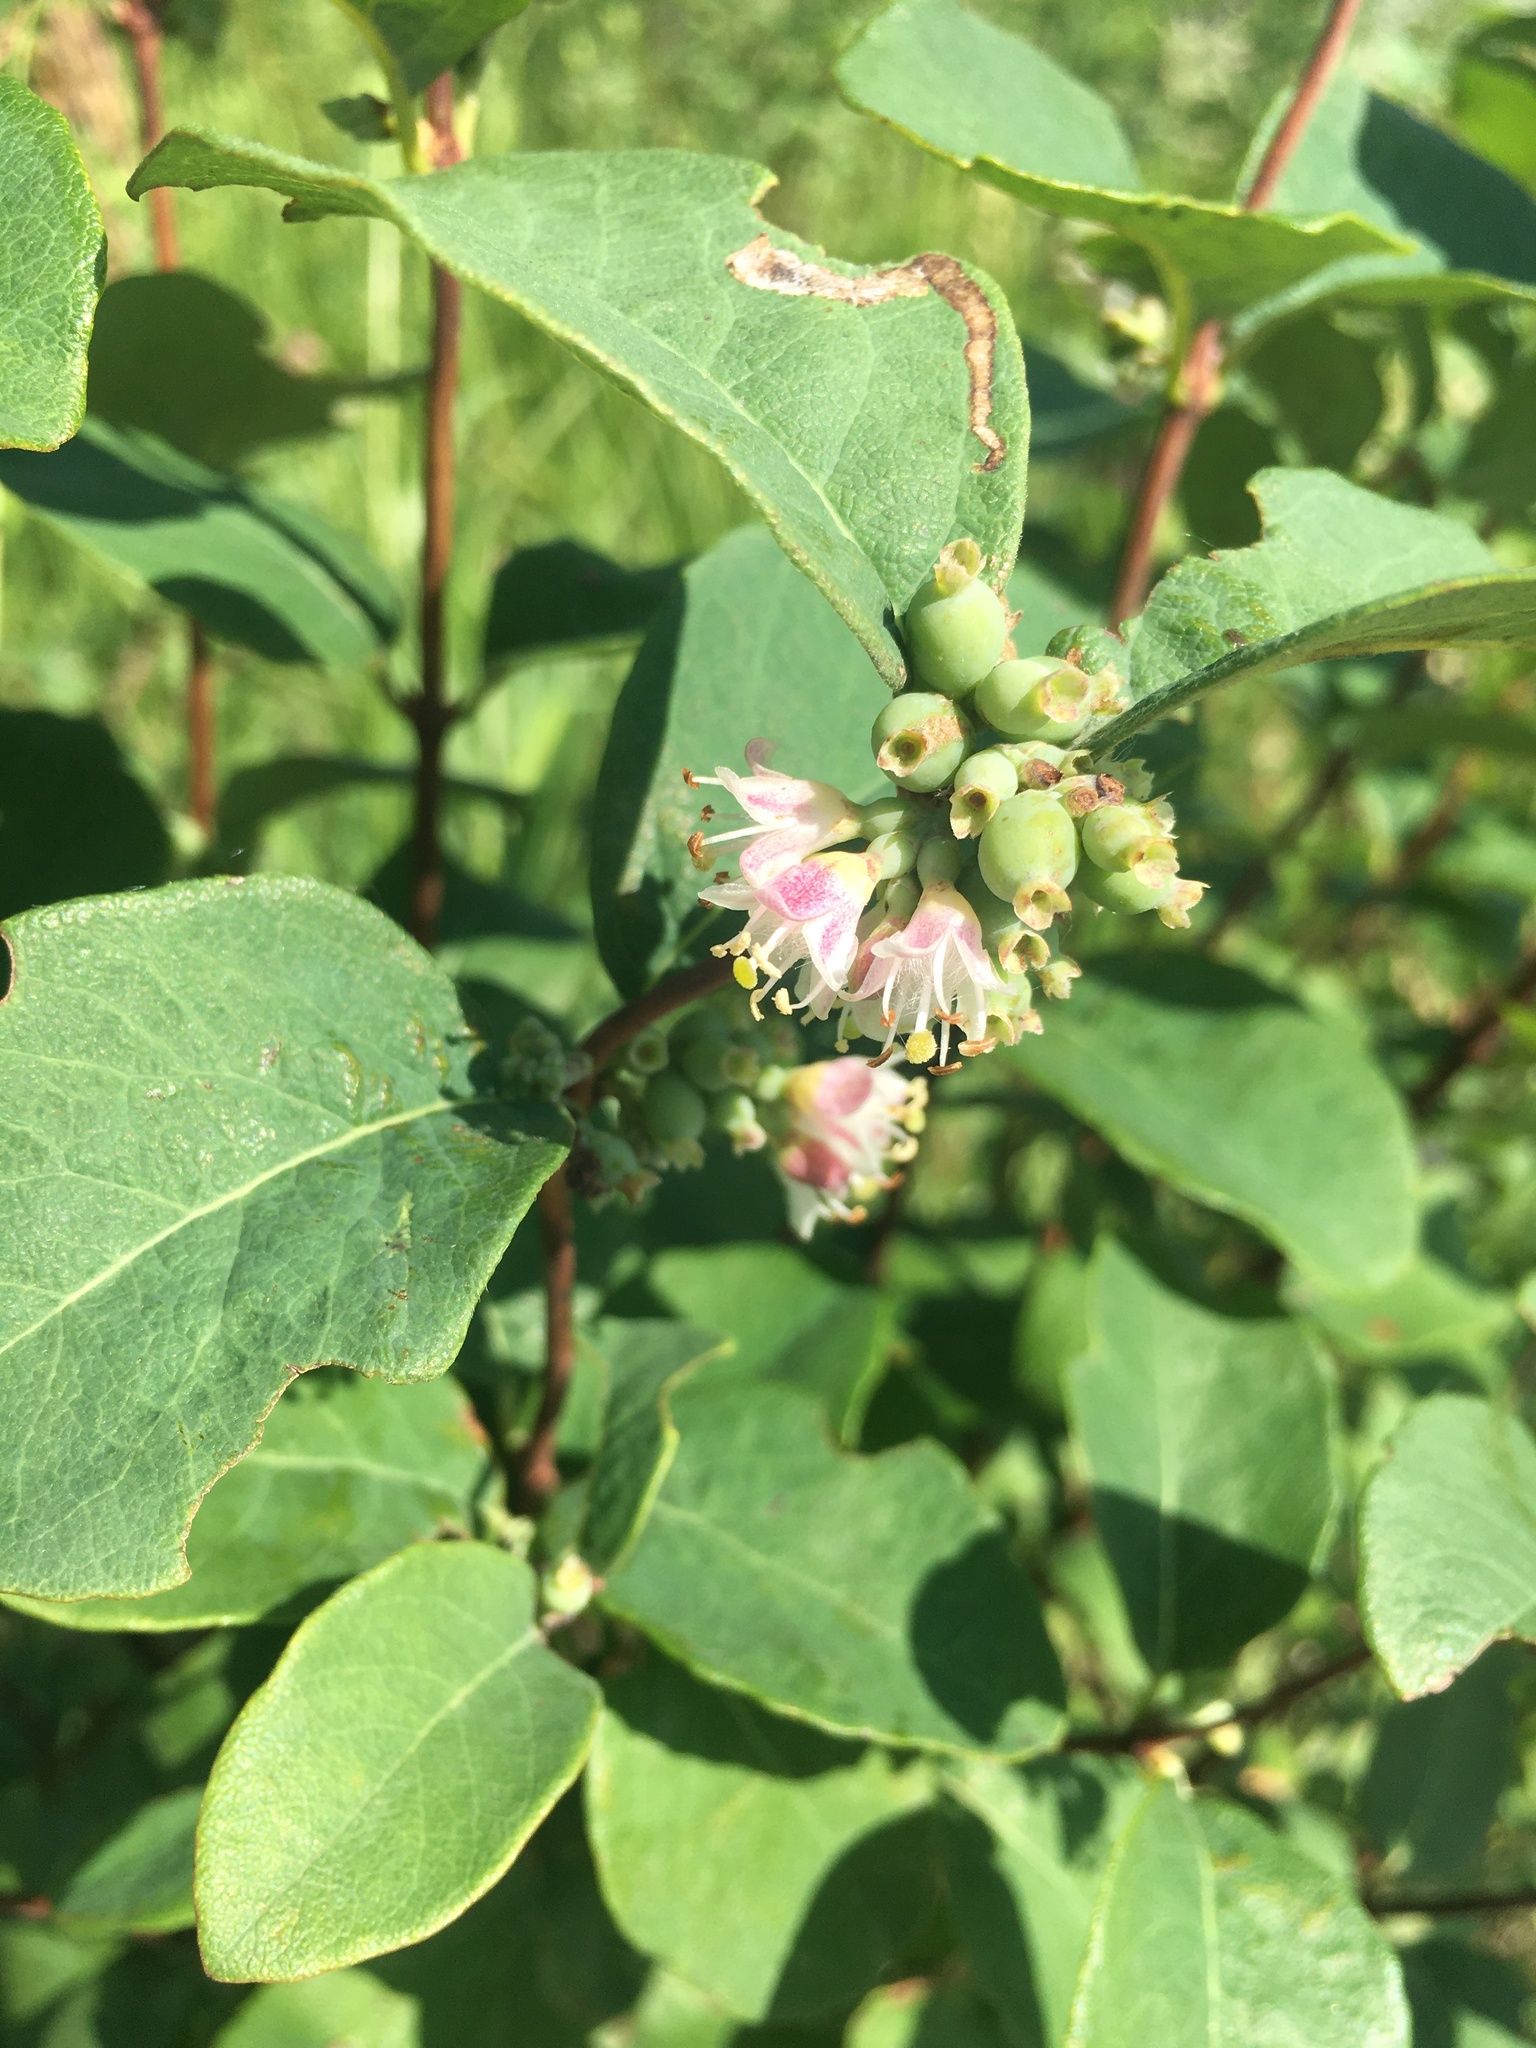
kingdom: Plantae
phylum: Tracheophyta
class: Magnoliopsida
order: Dipsacales
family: Caprifoliaceae
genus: Symphoricarpos
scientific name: Symphoricarpos occidentalis
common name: Wolfberry
